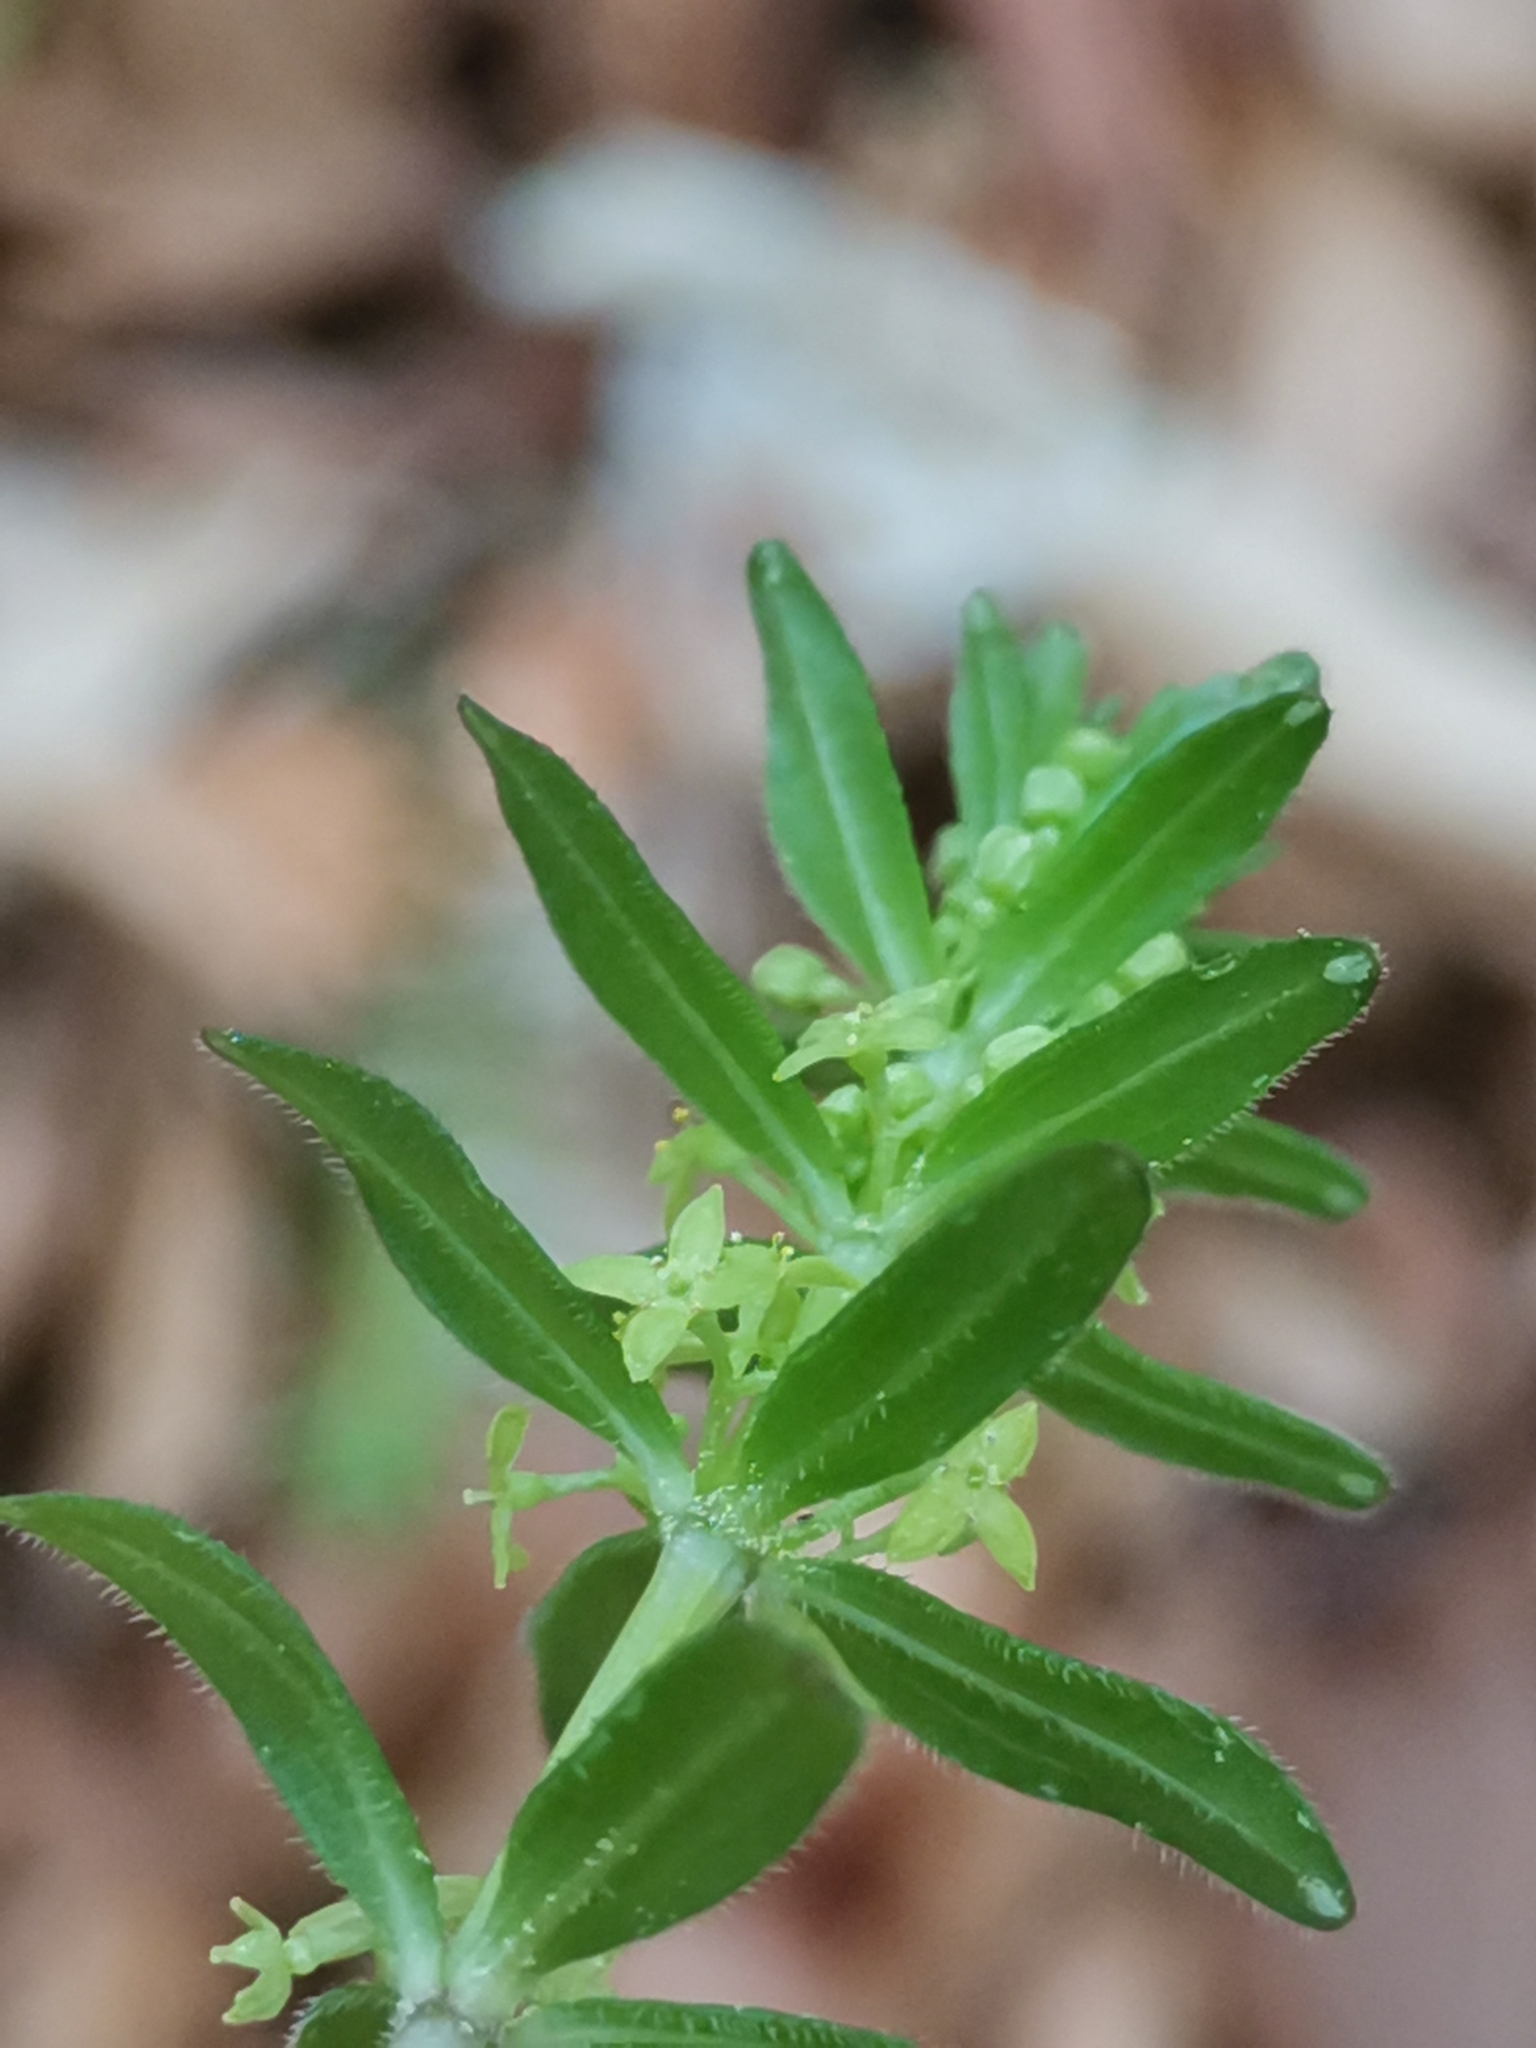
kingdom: Plantae
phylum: Tracheophyta
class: Magnoliopsida
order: Gentianales
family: Rubiaceae
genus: Cruciata
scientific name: Cruciata glabra
